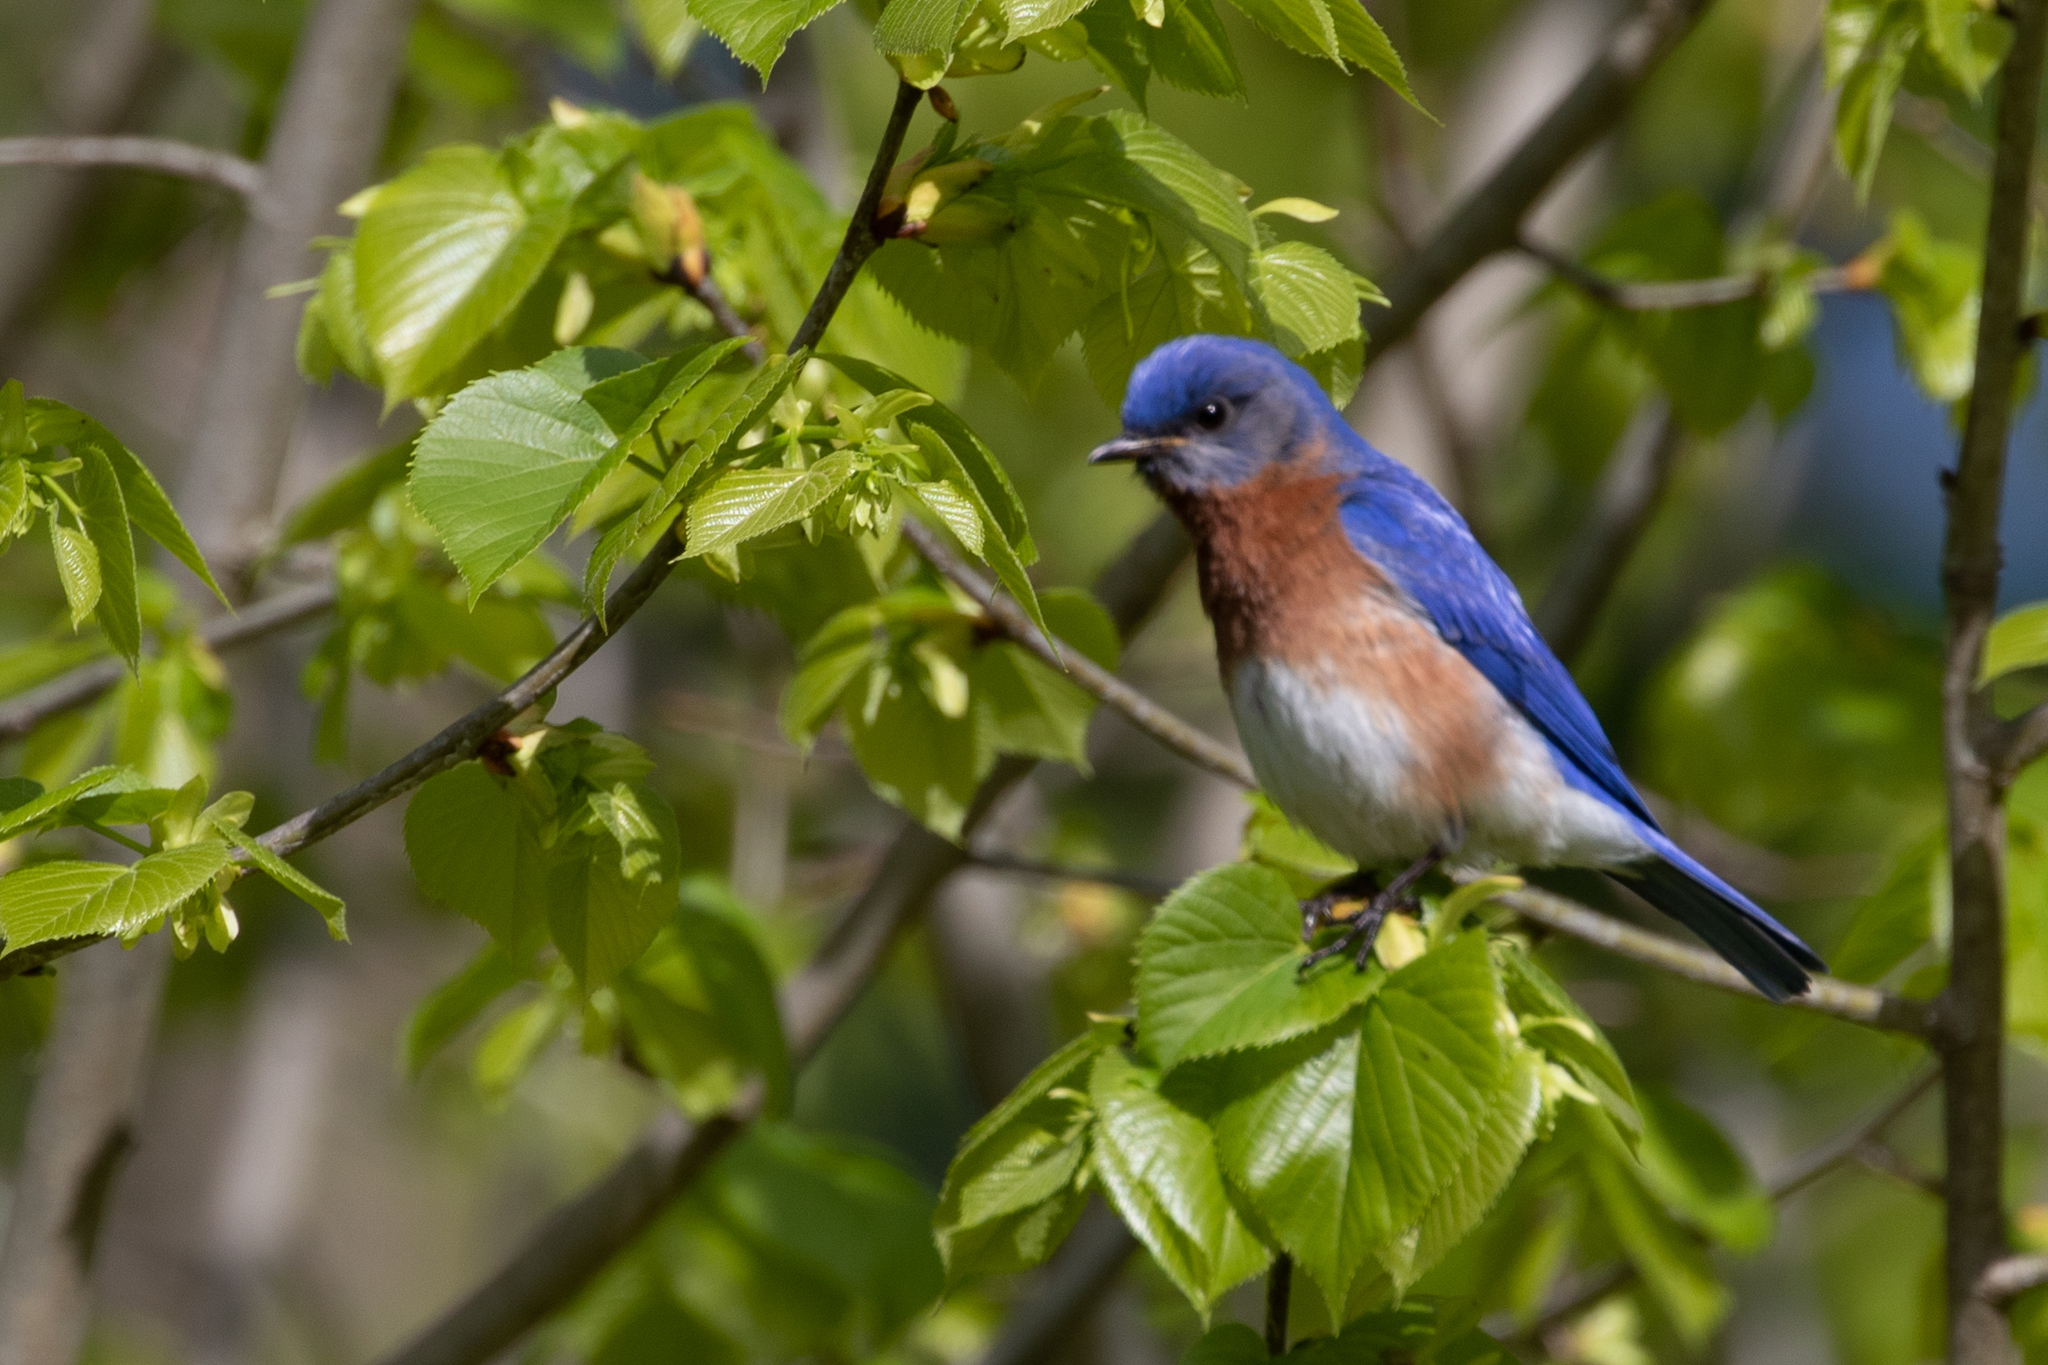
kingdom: Animalia
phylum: Chordata
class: Aves
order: Passeriformes
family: Turdidae
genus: Sialia
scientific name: Sialia sialis
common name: Eastern bluebird
